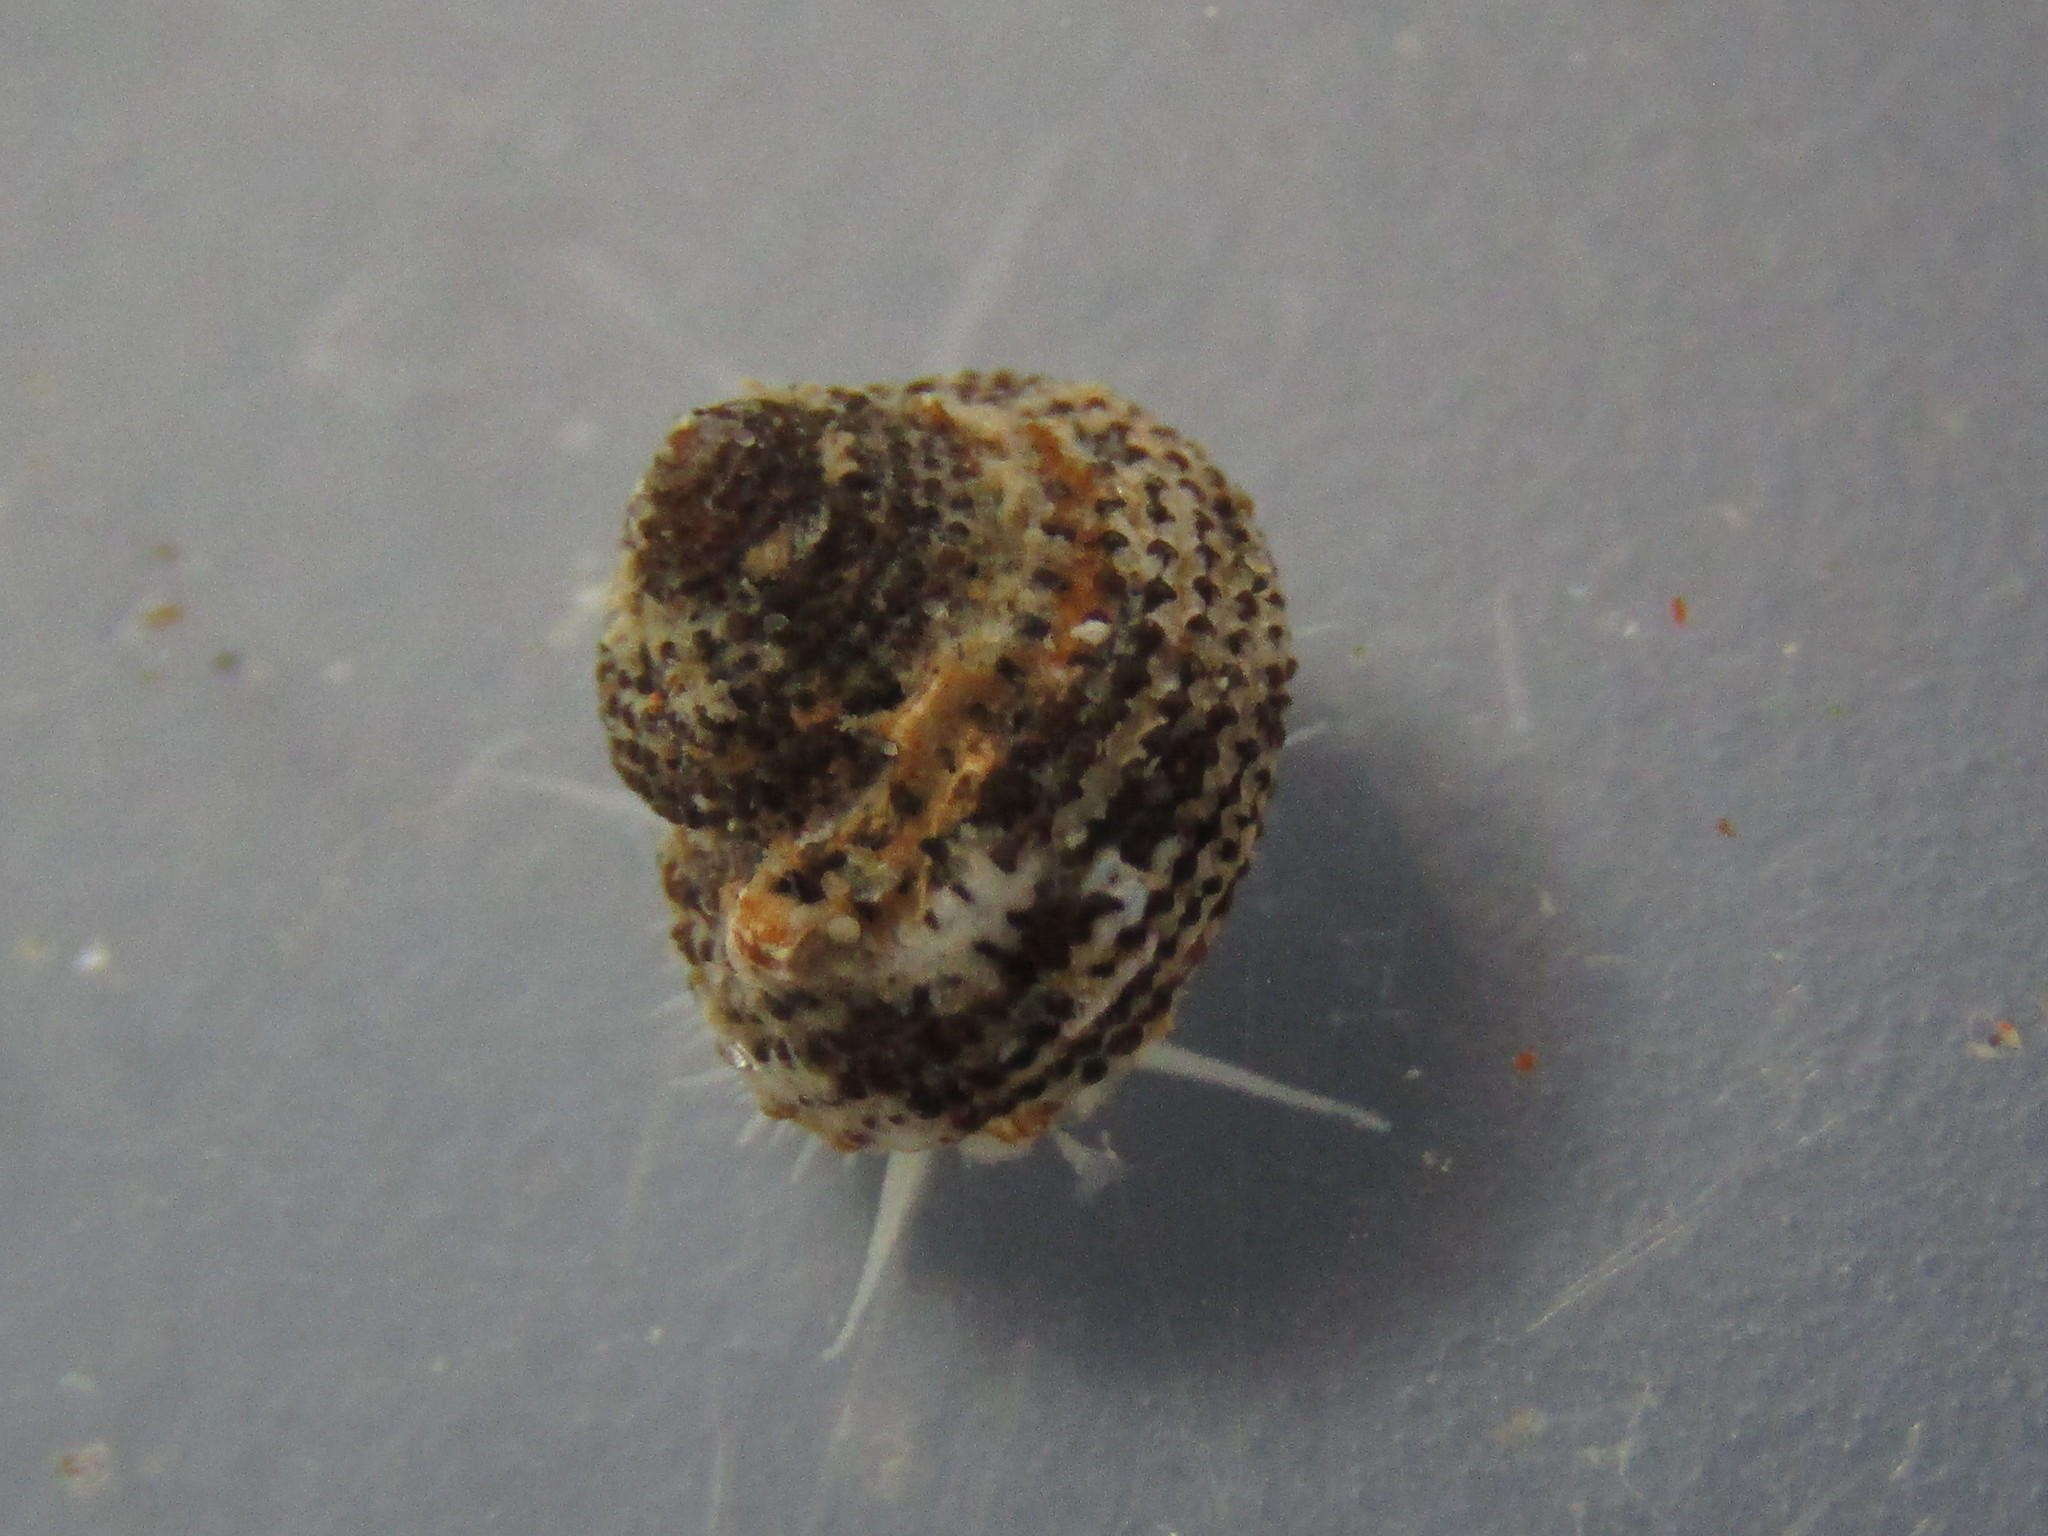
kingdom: Animalia
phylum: Mollusca
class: Gastropoda
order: Seguenziida
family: Chilodontaidae
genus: Herpetopoma
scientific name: Herpetopoma bellum
